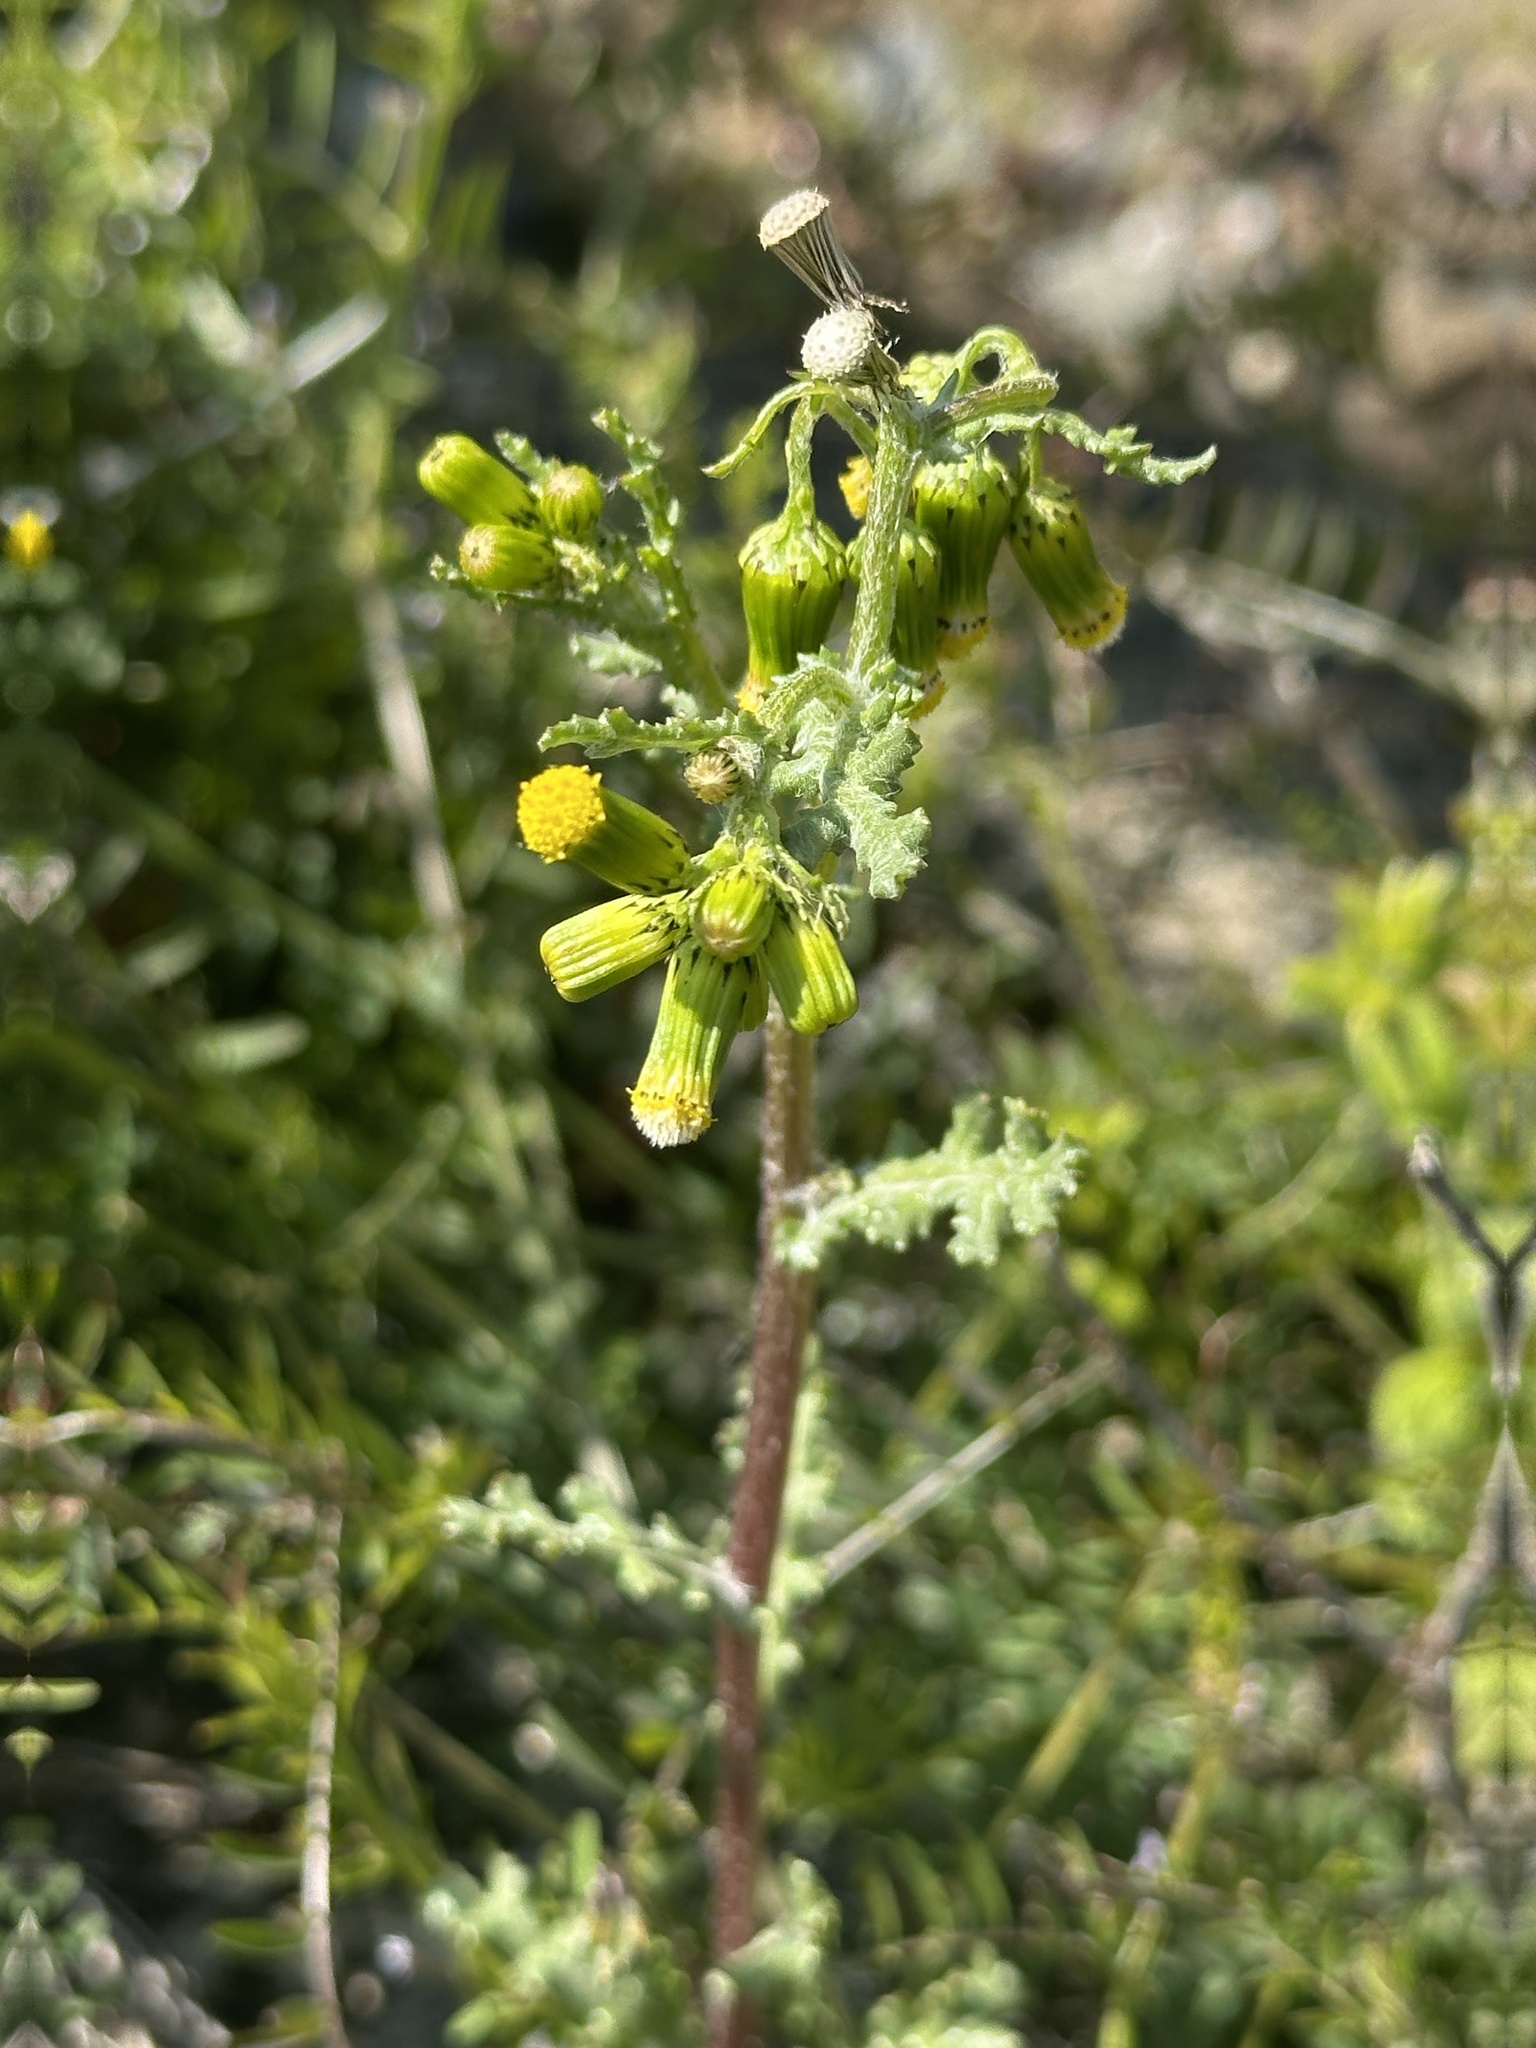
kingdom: Plantae
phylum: Tracheophyta
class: Magnoliopsida
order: Asterales
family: Asteraceae
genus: Senecio
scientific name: Senecio vulgaris
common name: Old-man-in-the-spring
